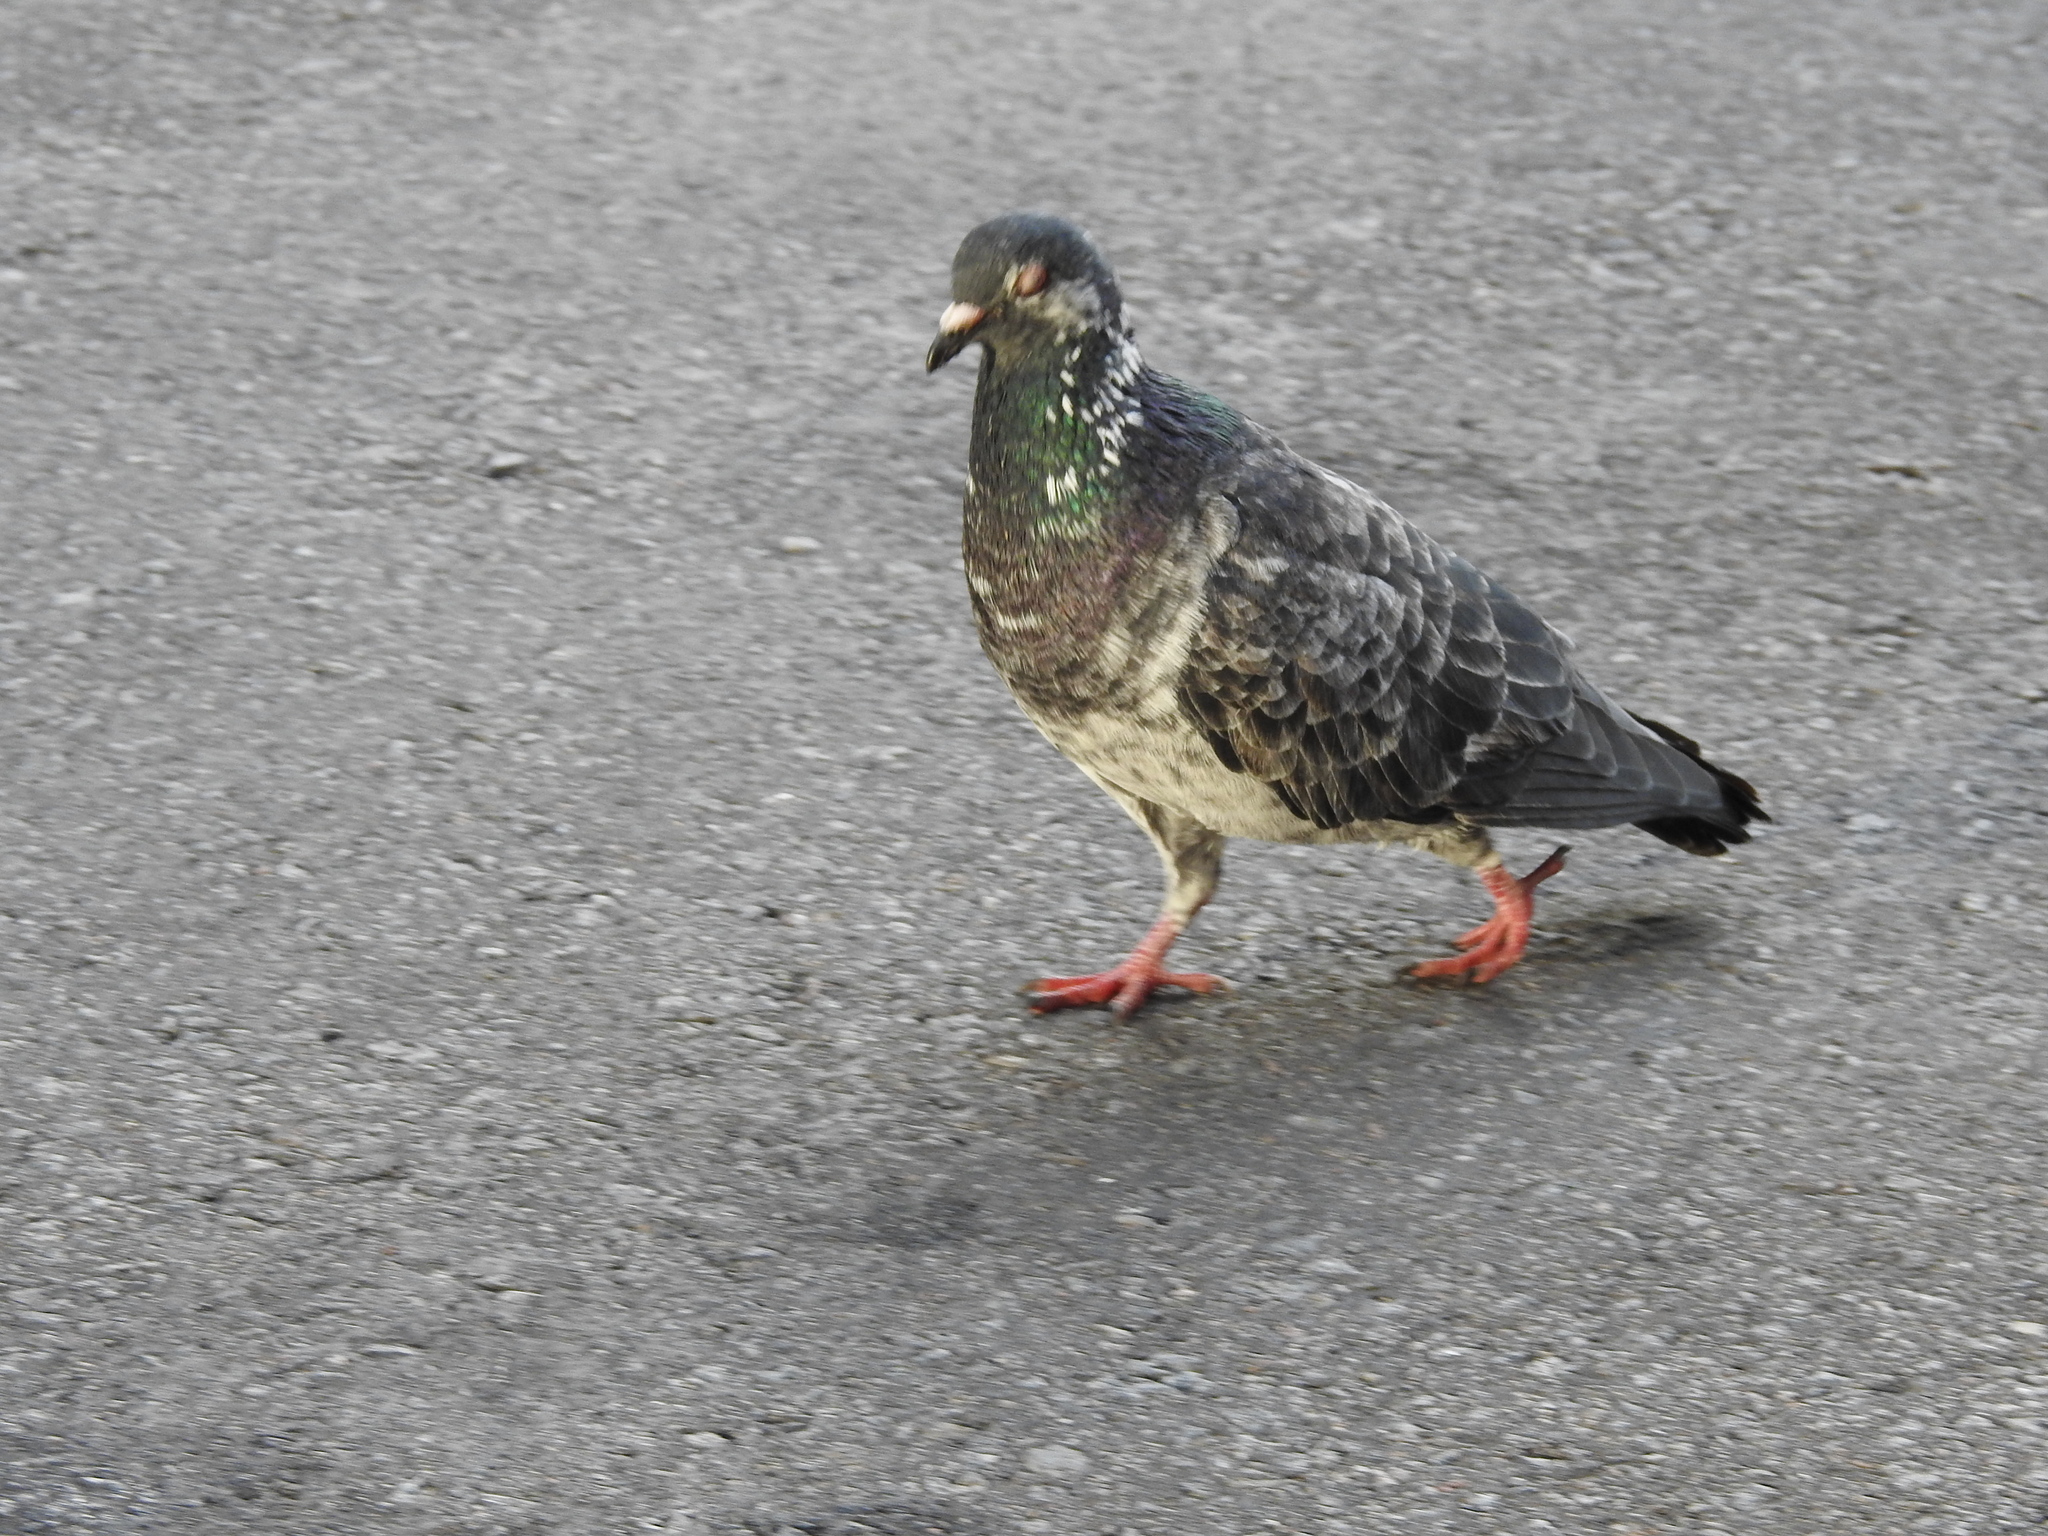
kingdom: Animalia
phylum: Chordata
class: Aves
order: Columbiformes
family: Columbidae
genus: Columba
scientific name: Columba livia
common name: Rock pigeon
